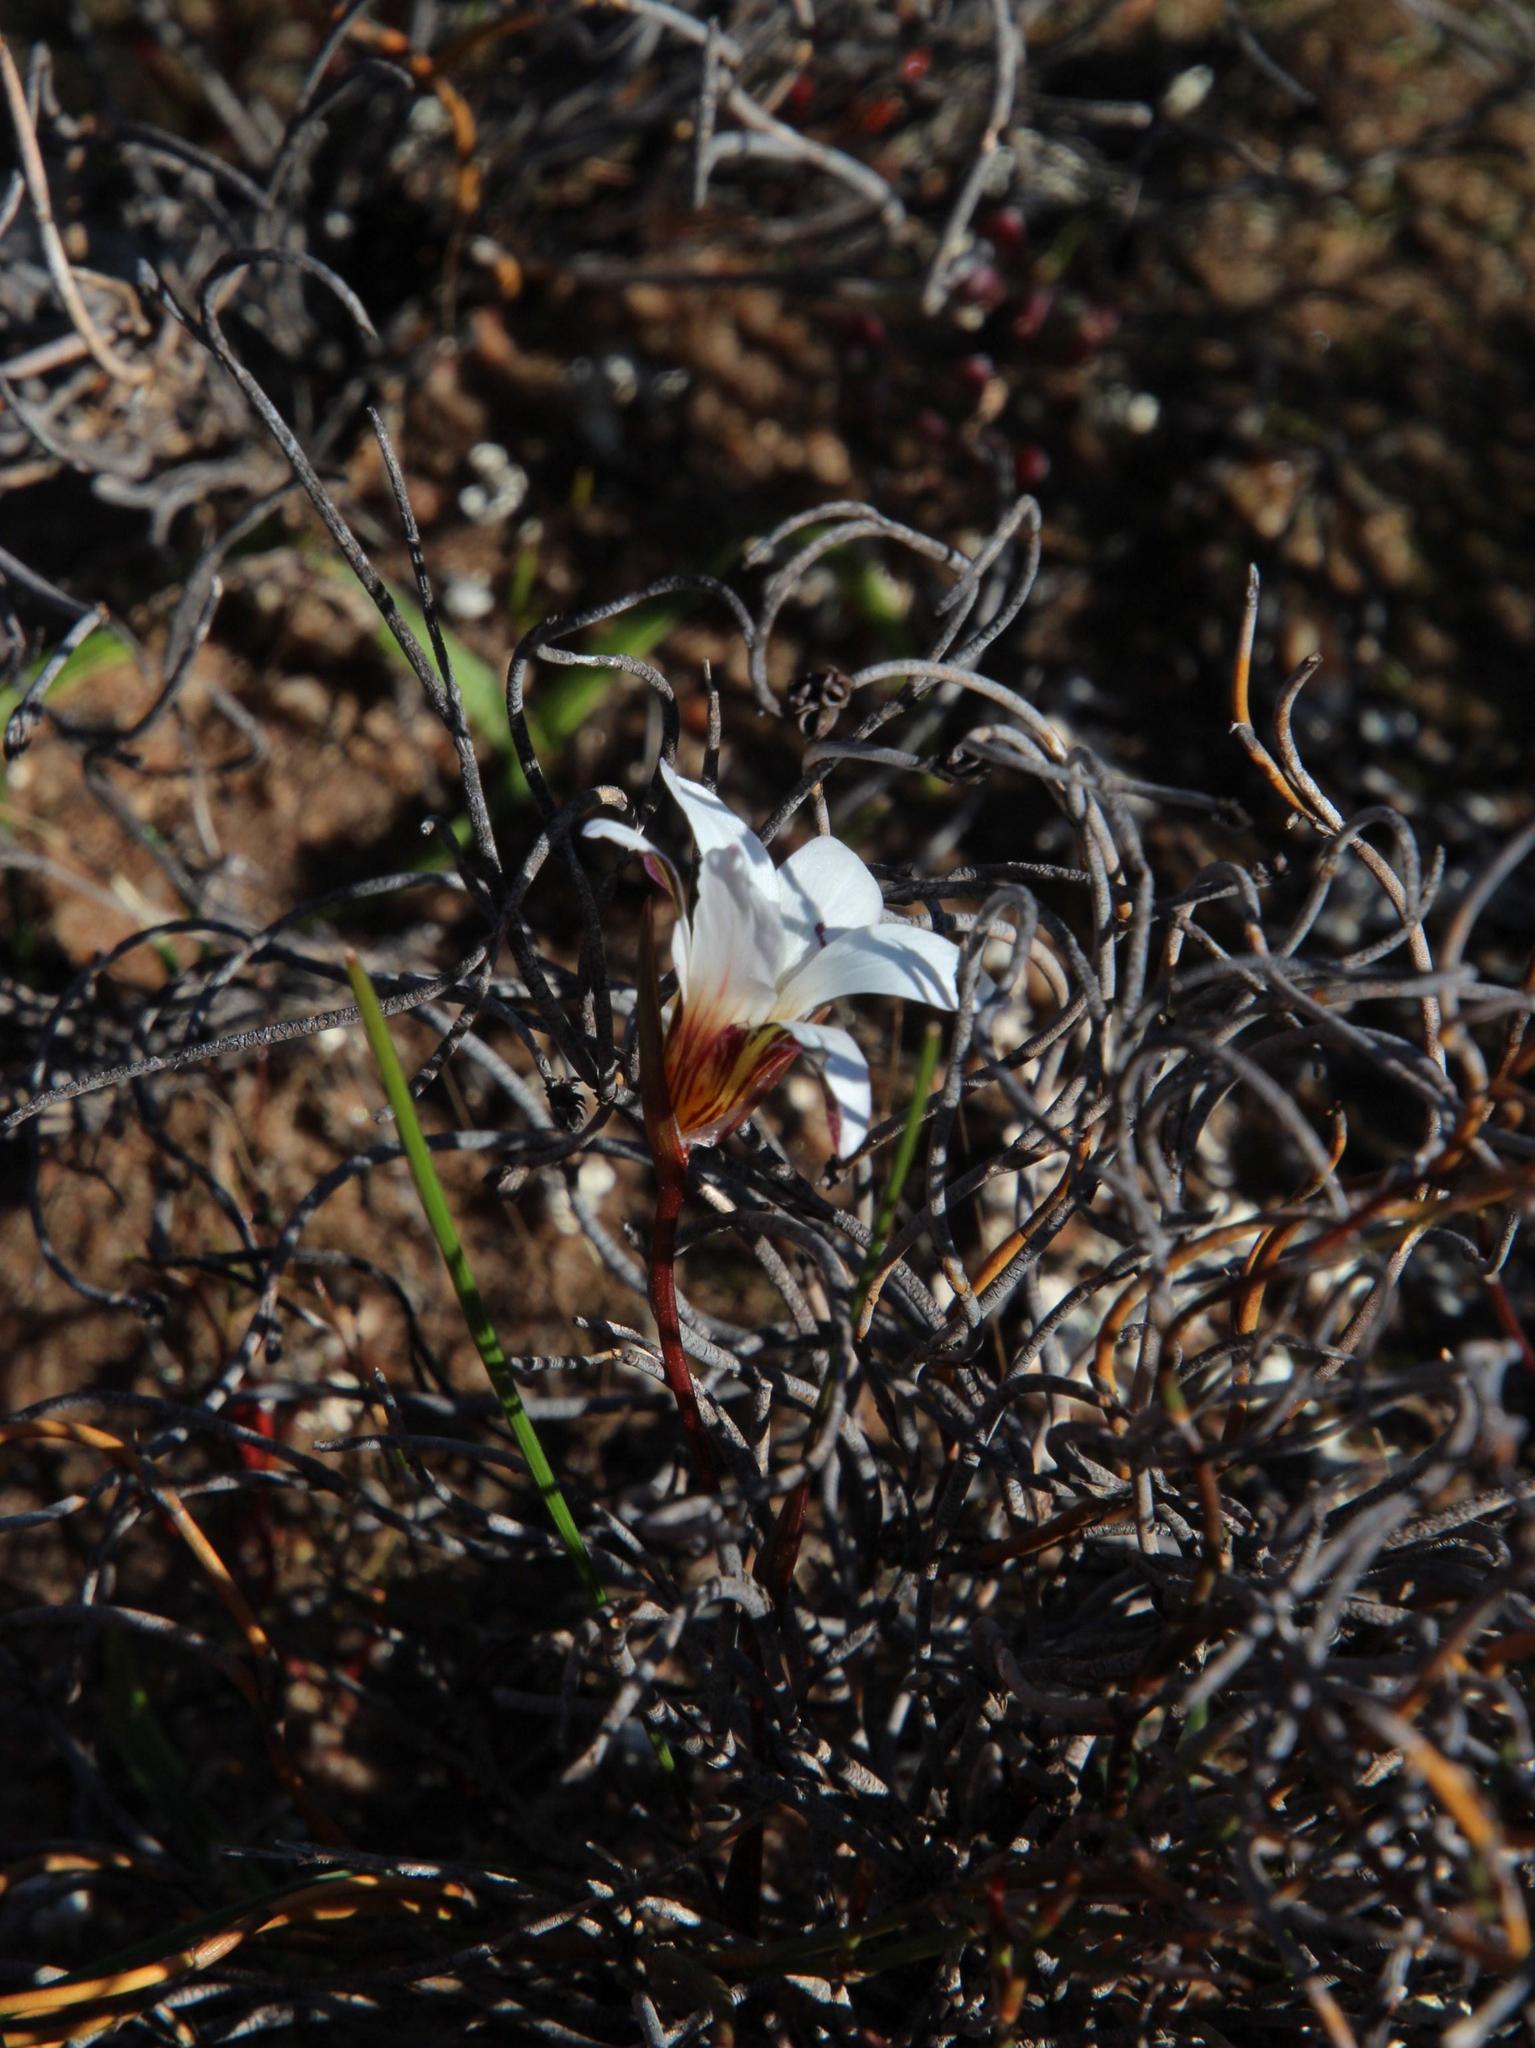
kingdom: Plantae
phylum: Tracheophyta
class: Liliopsida
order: Asparagales
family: Iridaceae
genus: Romulea
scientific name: Romulea toximontana
